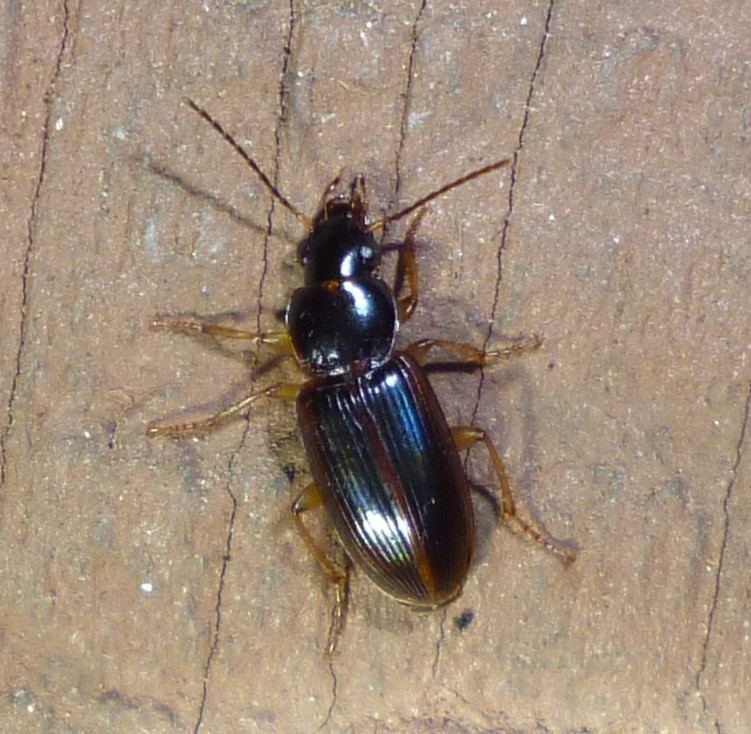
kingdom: Animalia
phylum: Arthropoda
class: Insecta
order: Coleoptera
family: Carabidae
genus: Stenolophus
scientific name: Stenolophus ochropezus
